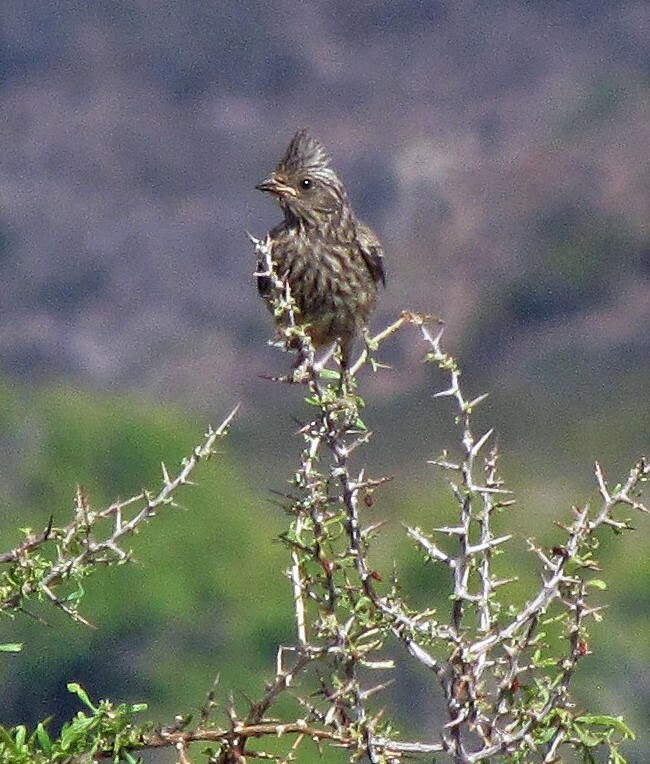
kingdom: Animalia
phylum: Chordata
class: Aves
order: Passeriformes
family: Cotingidae
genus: Phytotoma
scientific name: Phytotoma rutila
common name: White-tipped plantcutter
